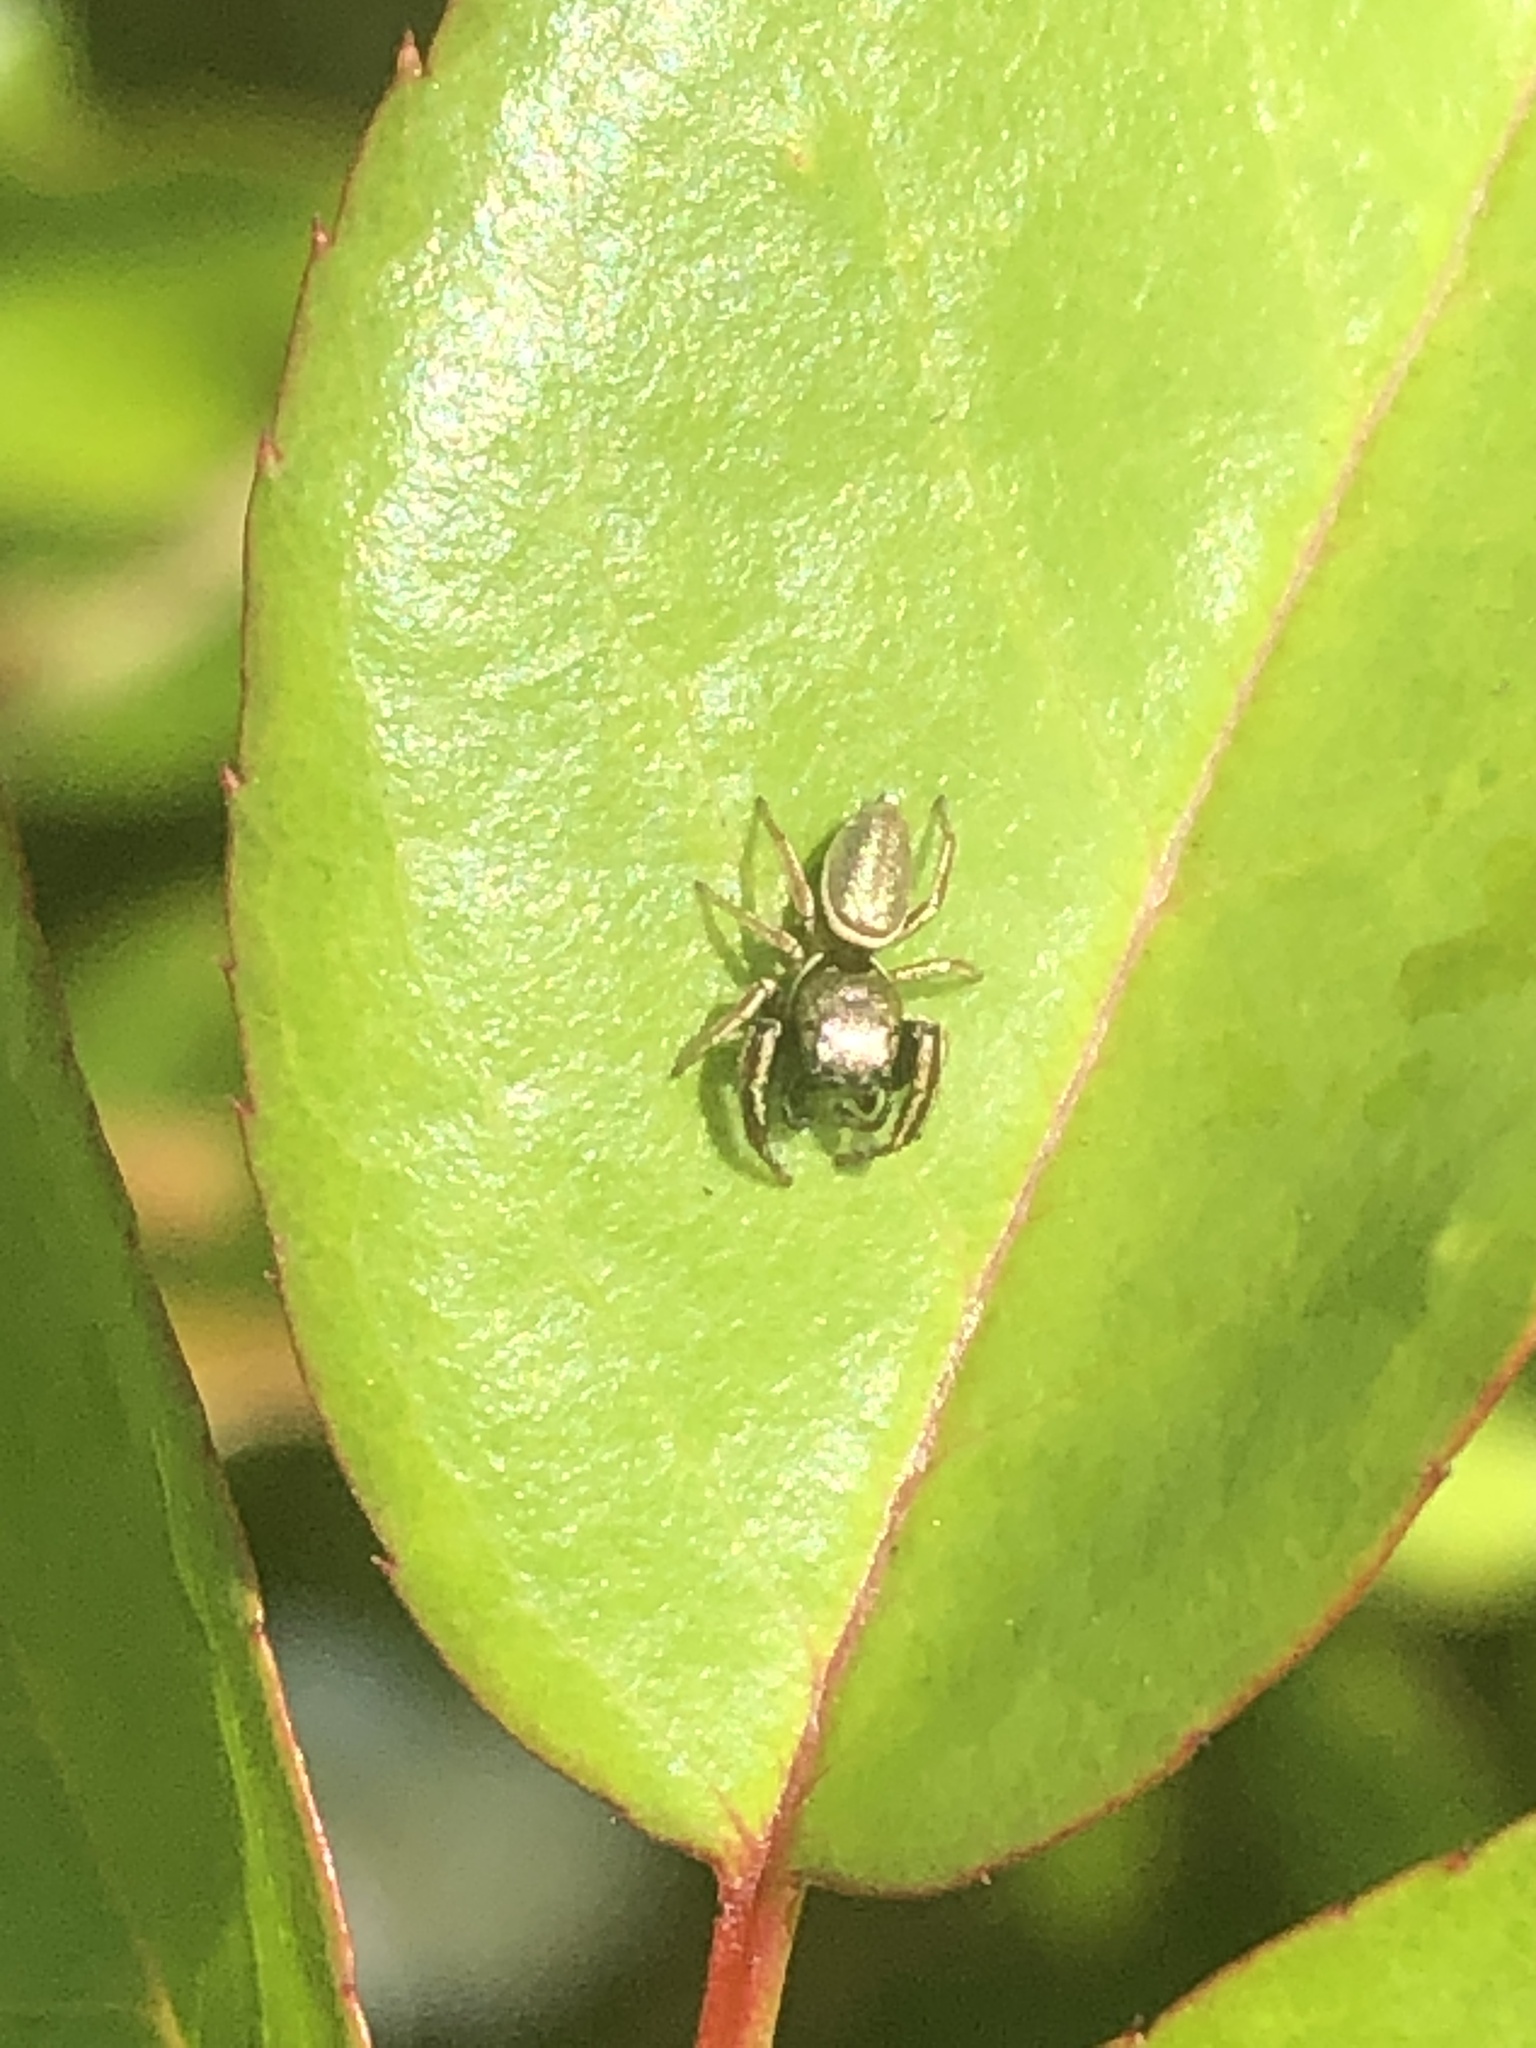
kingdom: Animalia
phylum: Arthropoda
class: Arachnida
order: Araneae
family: Salticidae
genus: Sassacus
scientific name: Sassacus vitis
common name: Jumping spiders
